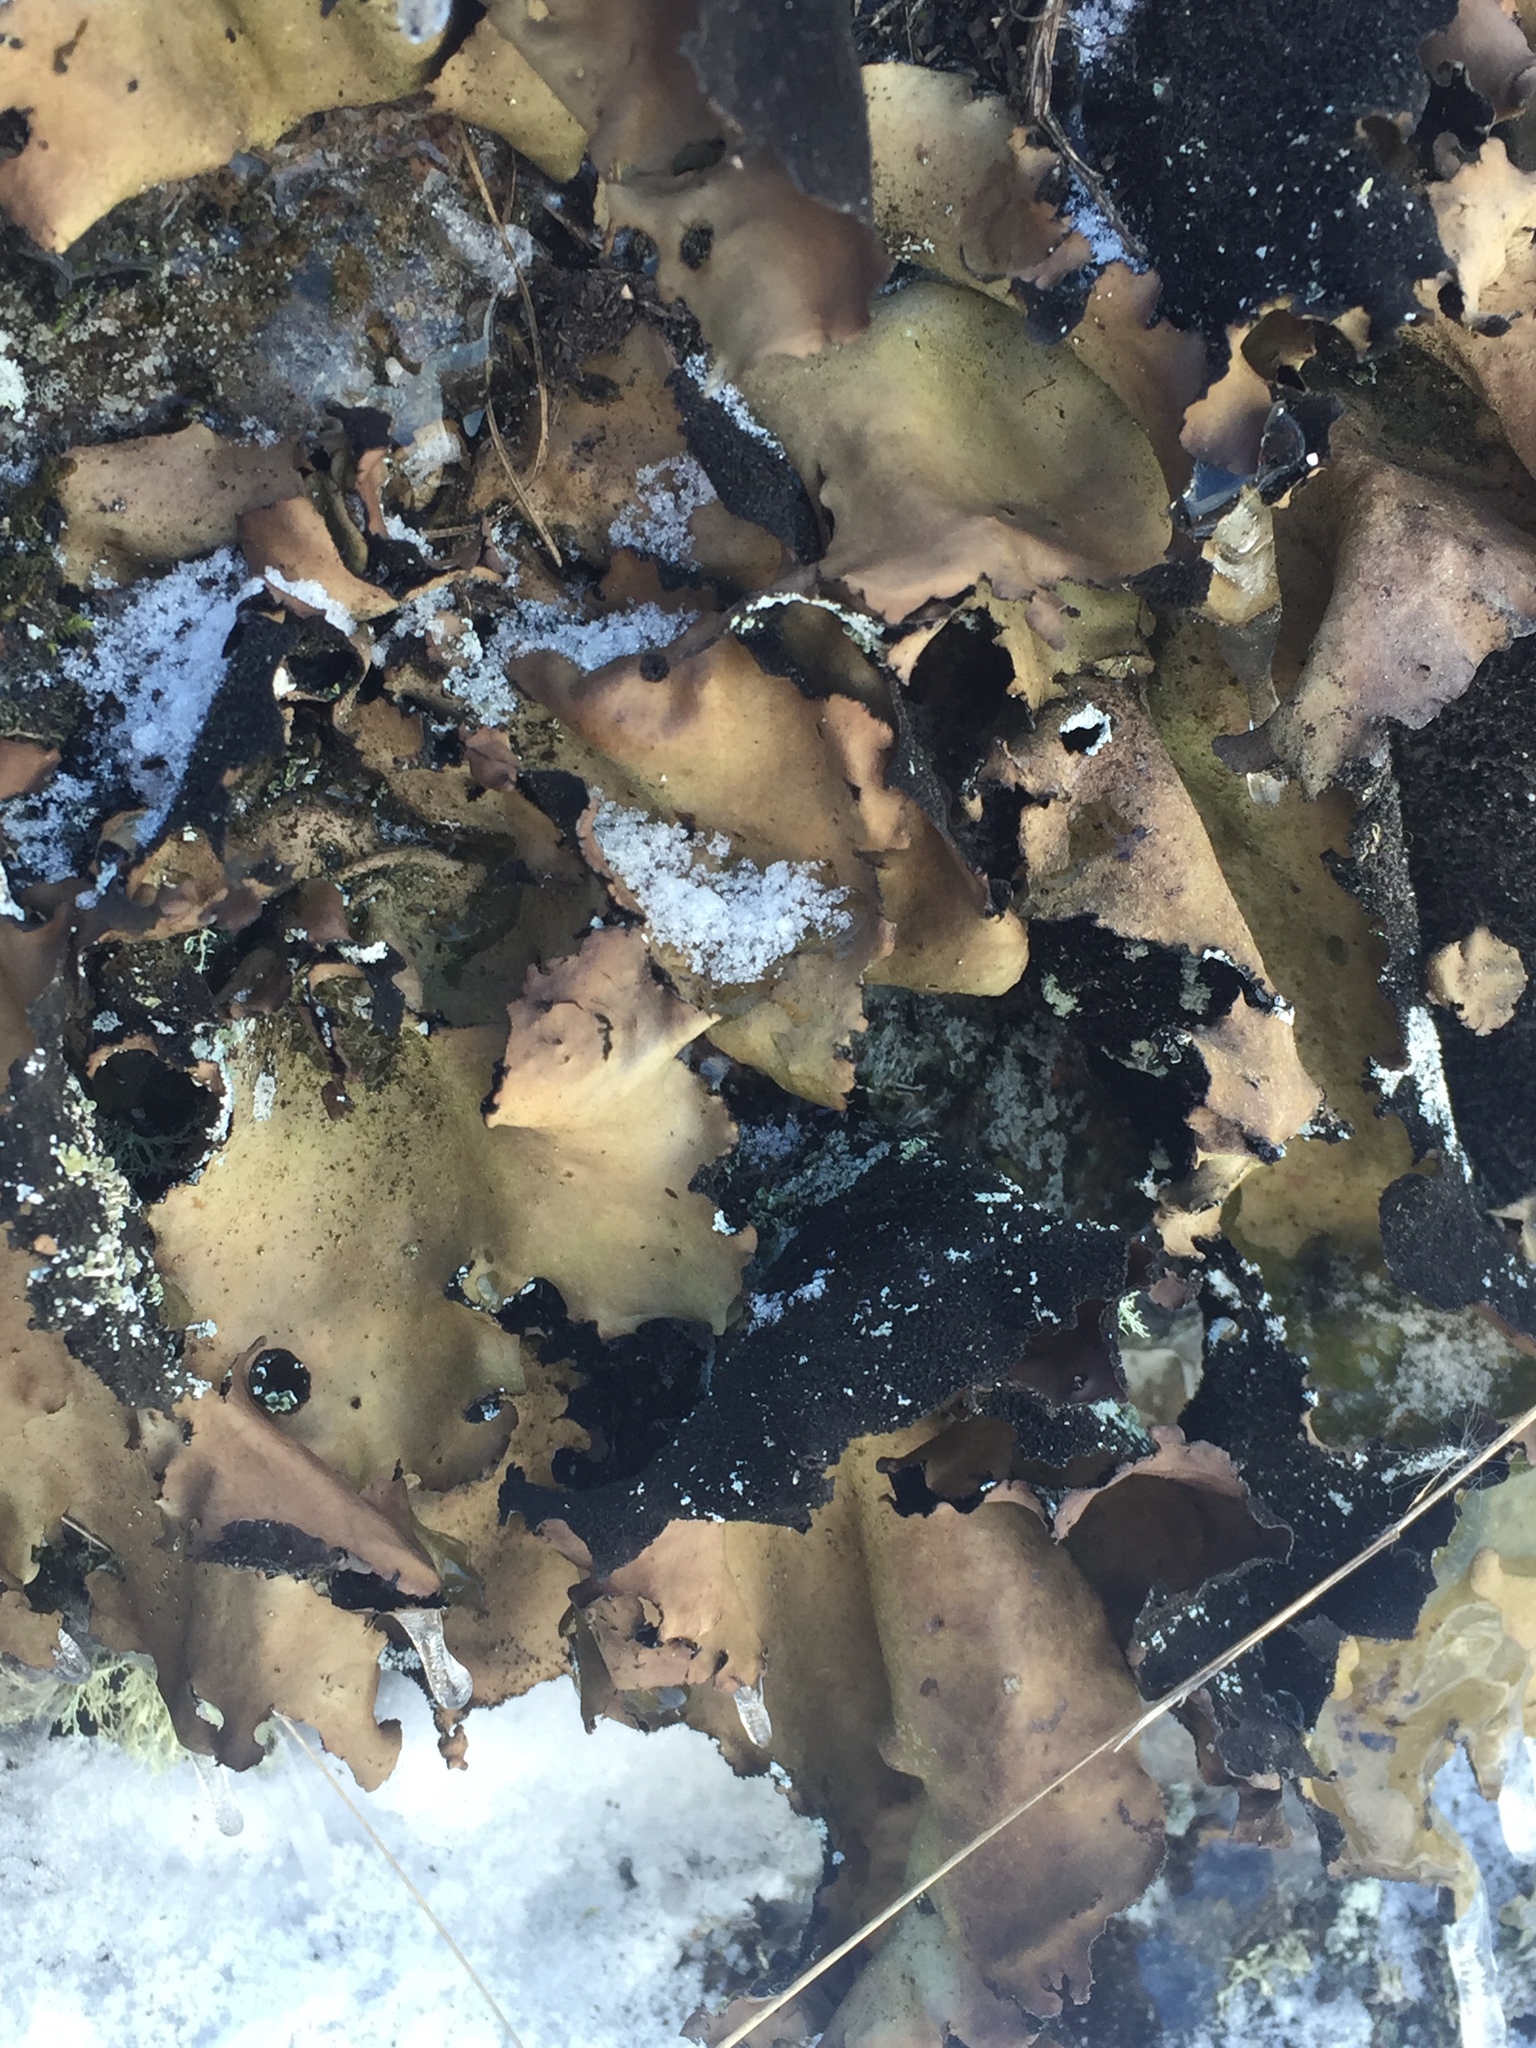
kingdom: Fungi
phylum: Ascomycota
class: Lecanoromycetes
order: Umbilicariales
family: Umbilicariaceae
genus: Umbilicaria
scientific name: Umbilicaria mammulata
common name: Smooth rock tripe
